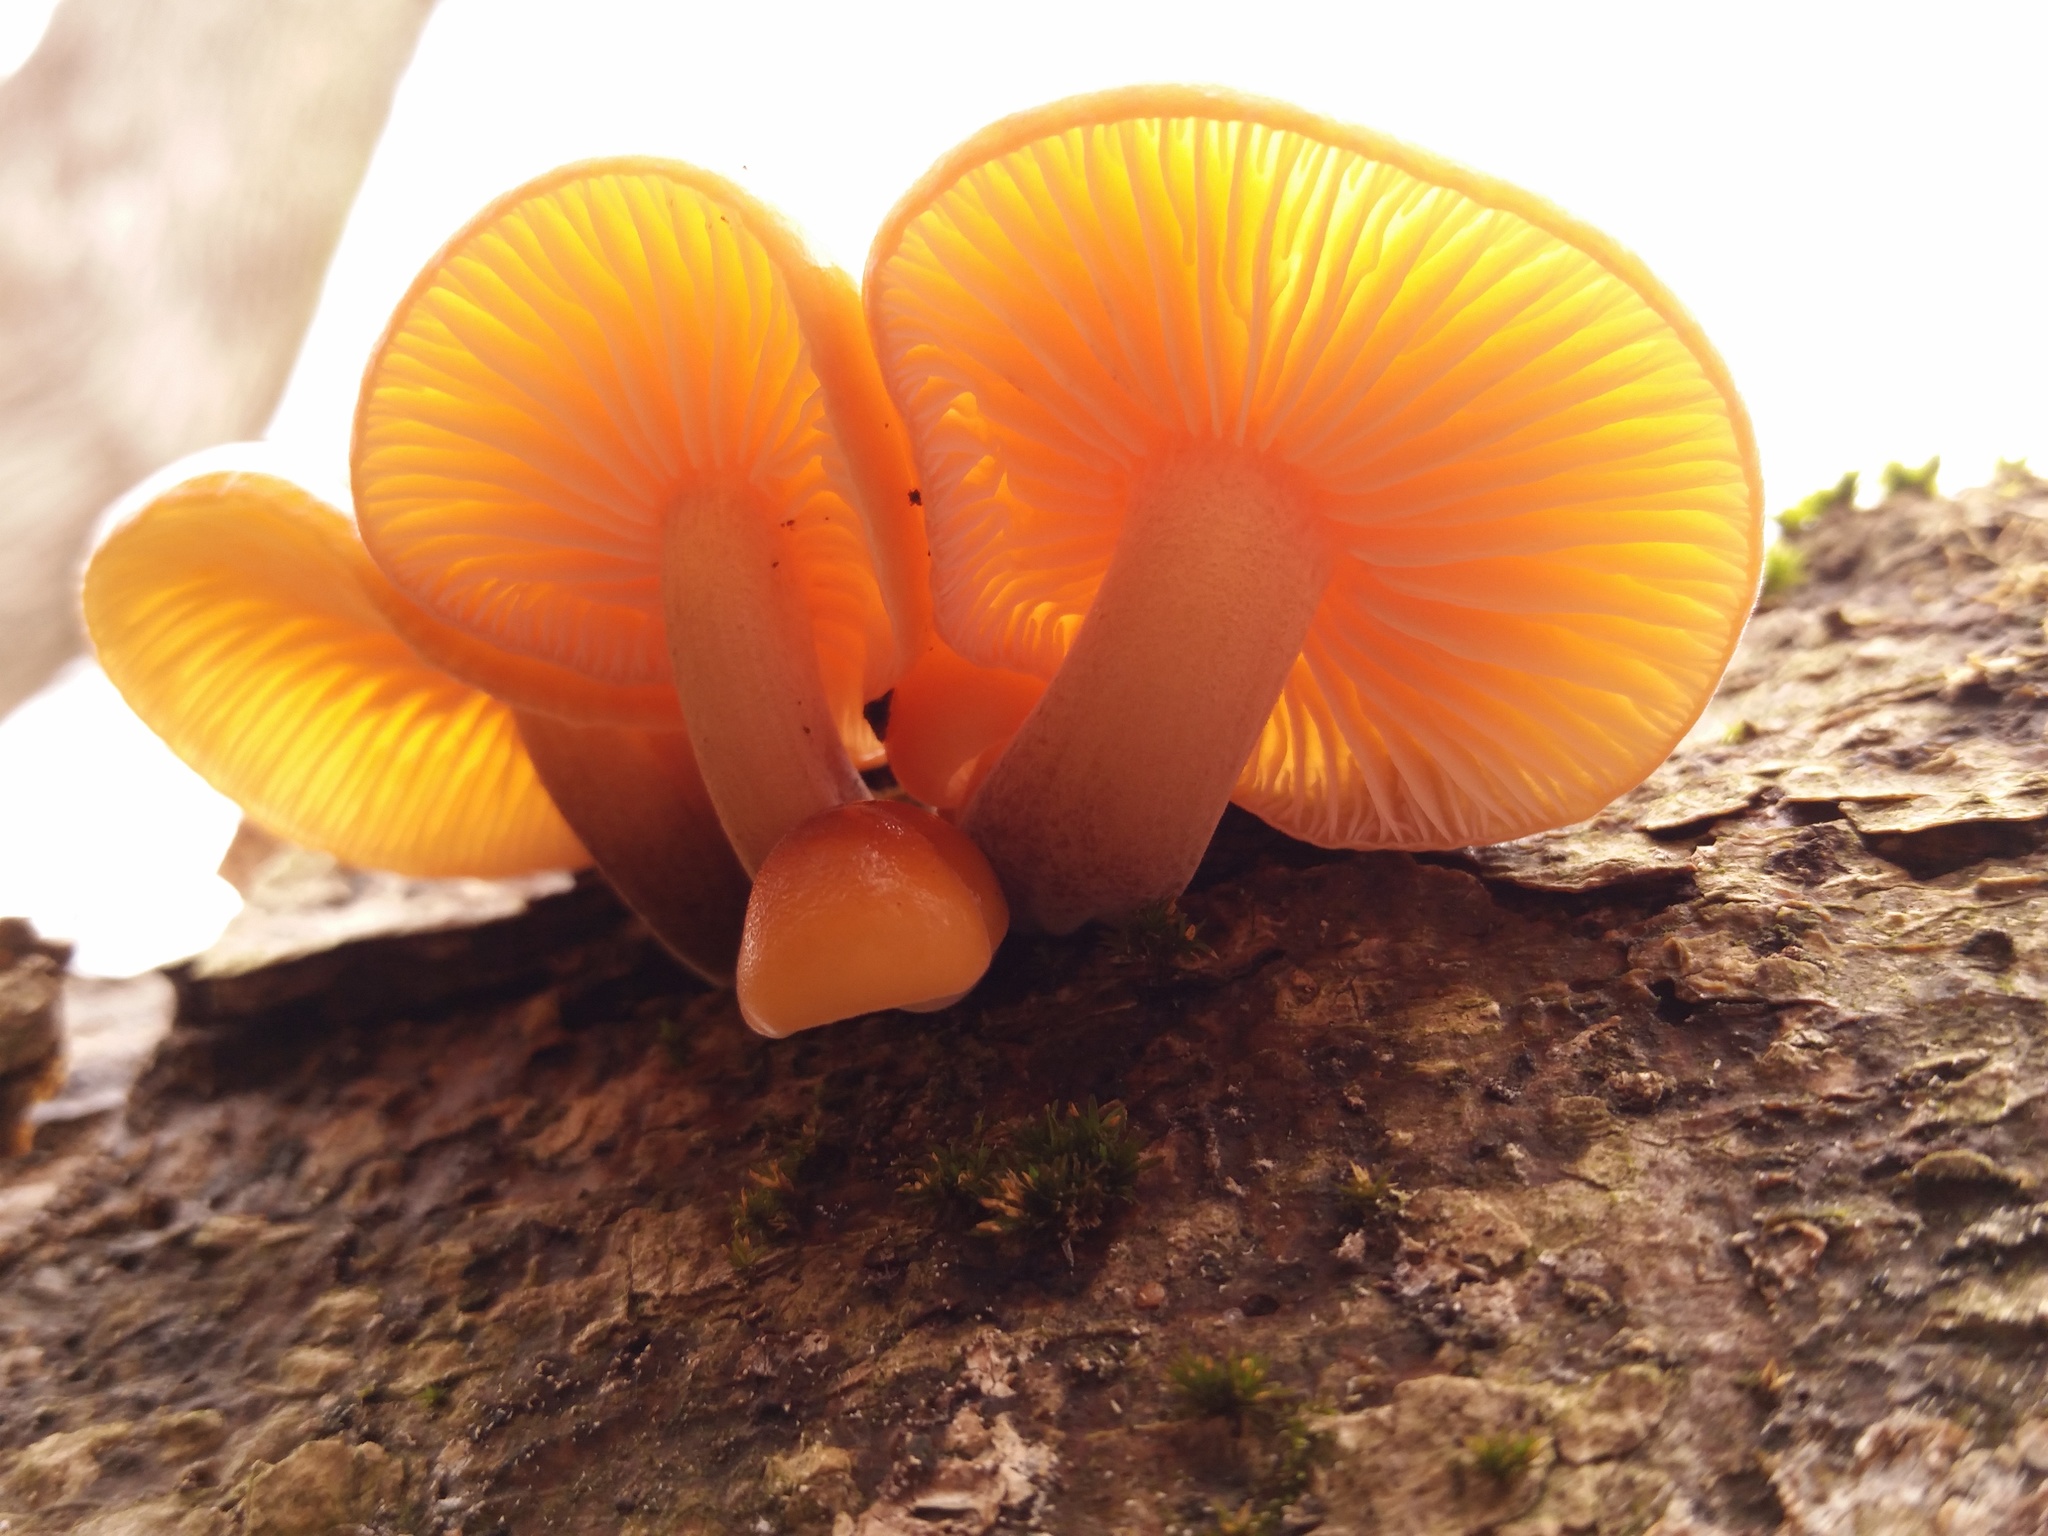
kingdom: Fungi
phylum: Basidiomycota
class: Agaricomycetes
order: Agaricales
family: Physalacriaceae
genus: Flammulina
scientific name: Flammulina velutipes
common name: Velvet shank
